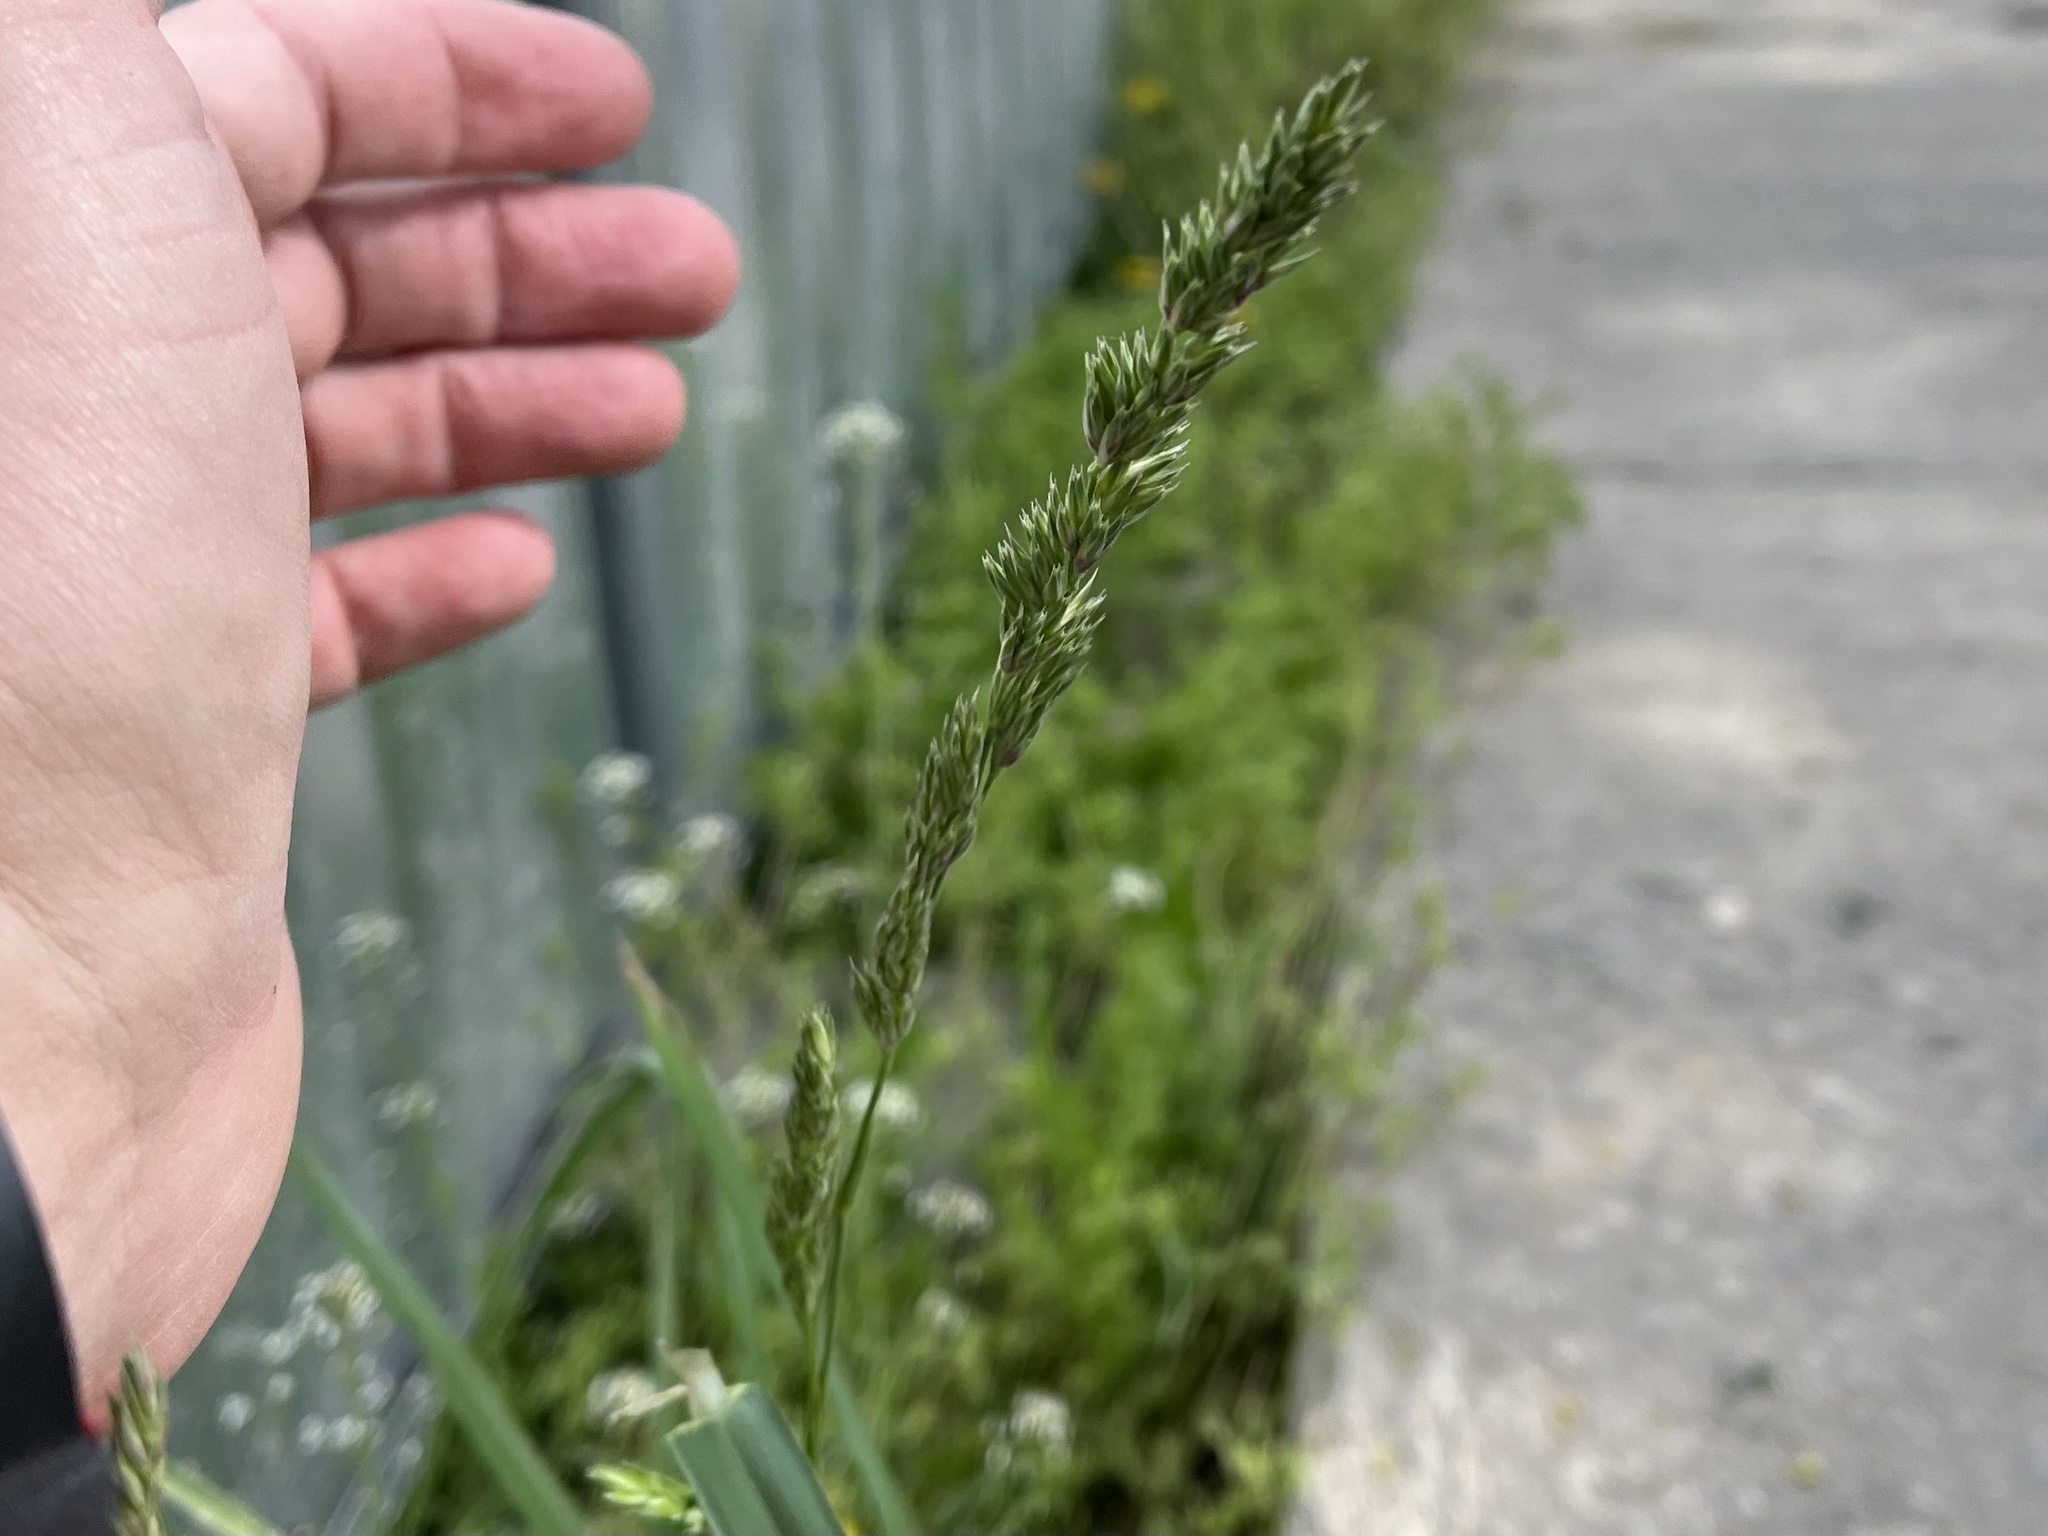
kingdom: Plantae
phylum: Tracheophyta
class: Liliopsida
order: Poales
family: Poaceae
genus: Dactylis
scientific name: Dactylis glomerata
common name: Orchardgrass
